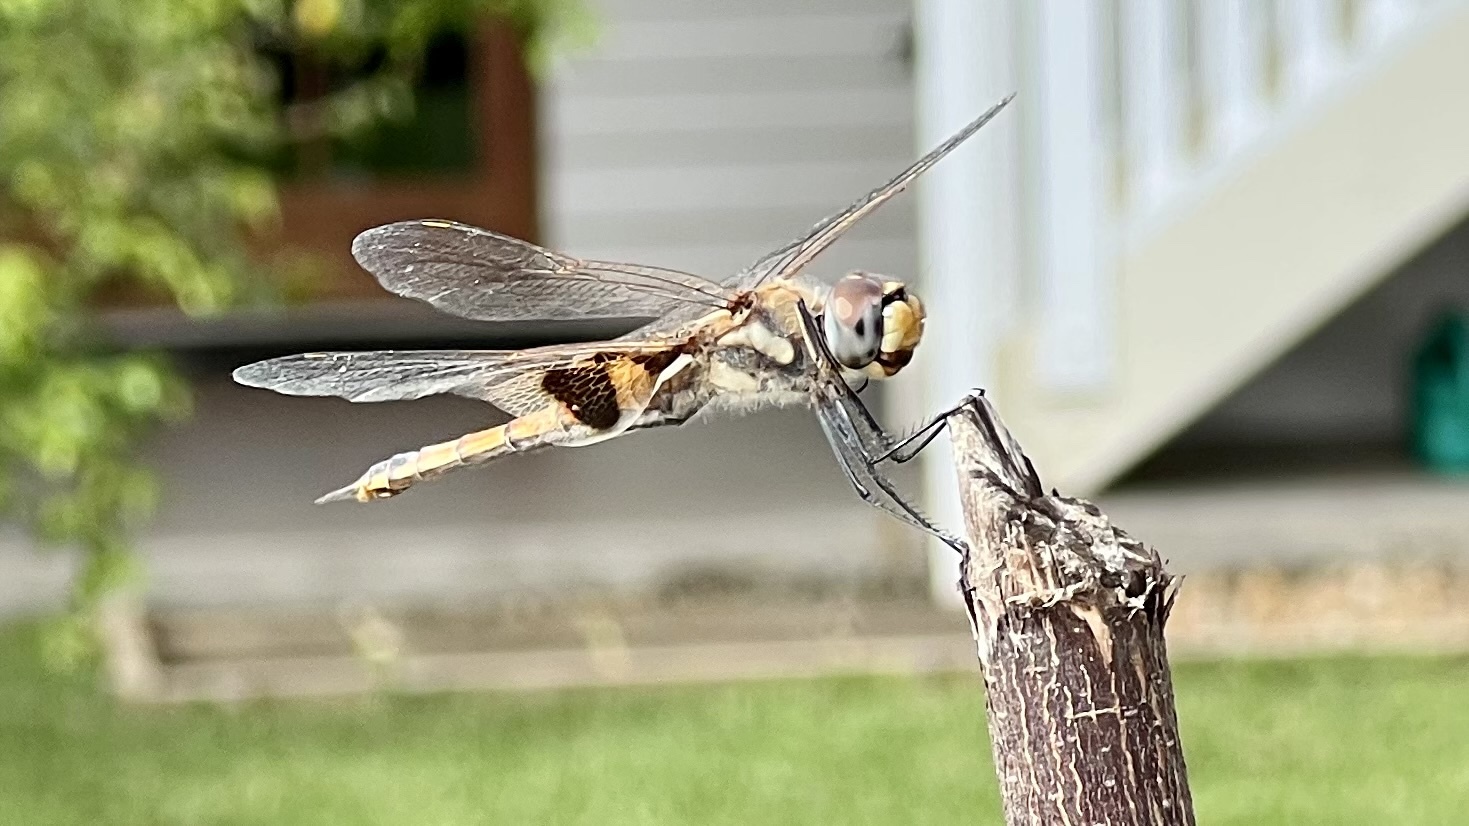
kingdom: Animalia
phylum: Arthropoda
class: Insecta
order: Odonata
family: Libellulidae
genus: Tramea
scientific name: Tramea loewii
